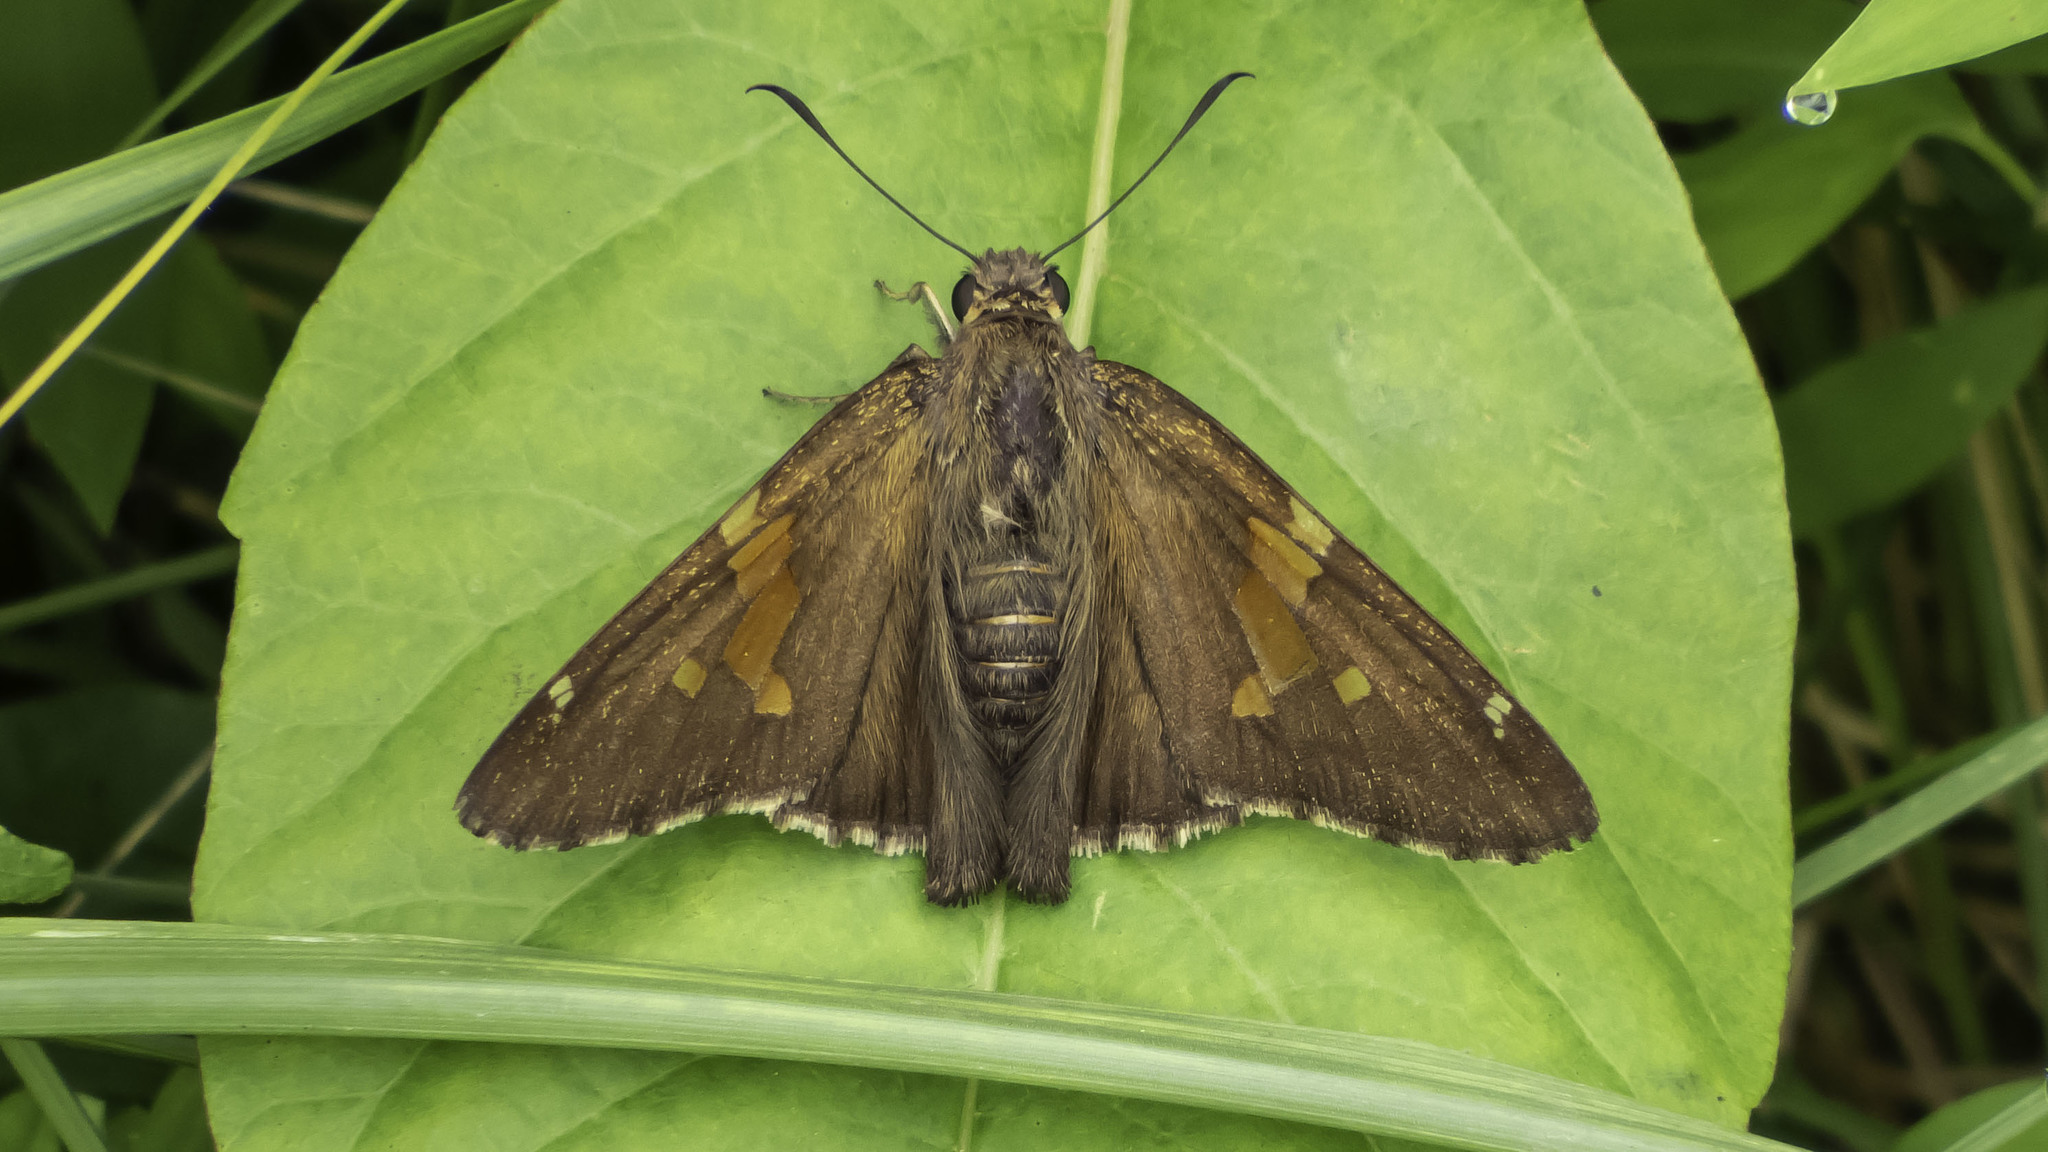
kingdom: Animalia
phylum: Arthropoda
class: Insecta
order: Lepidoptera
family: Hesperiidae
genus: Epargyreus
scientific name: Epargyreus clarus
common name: Silver-spotted skipper
